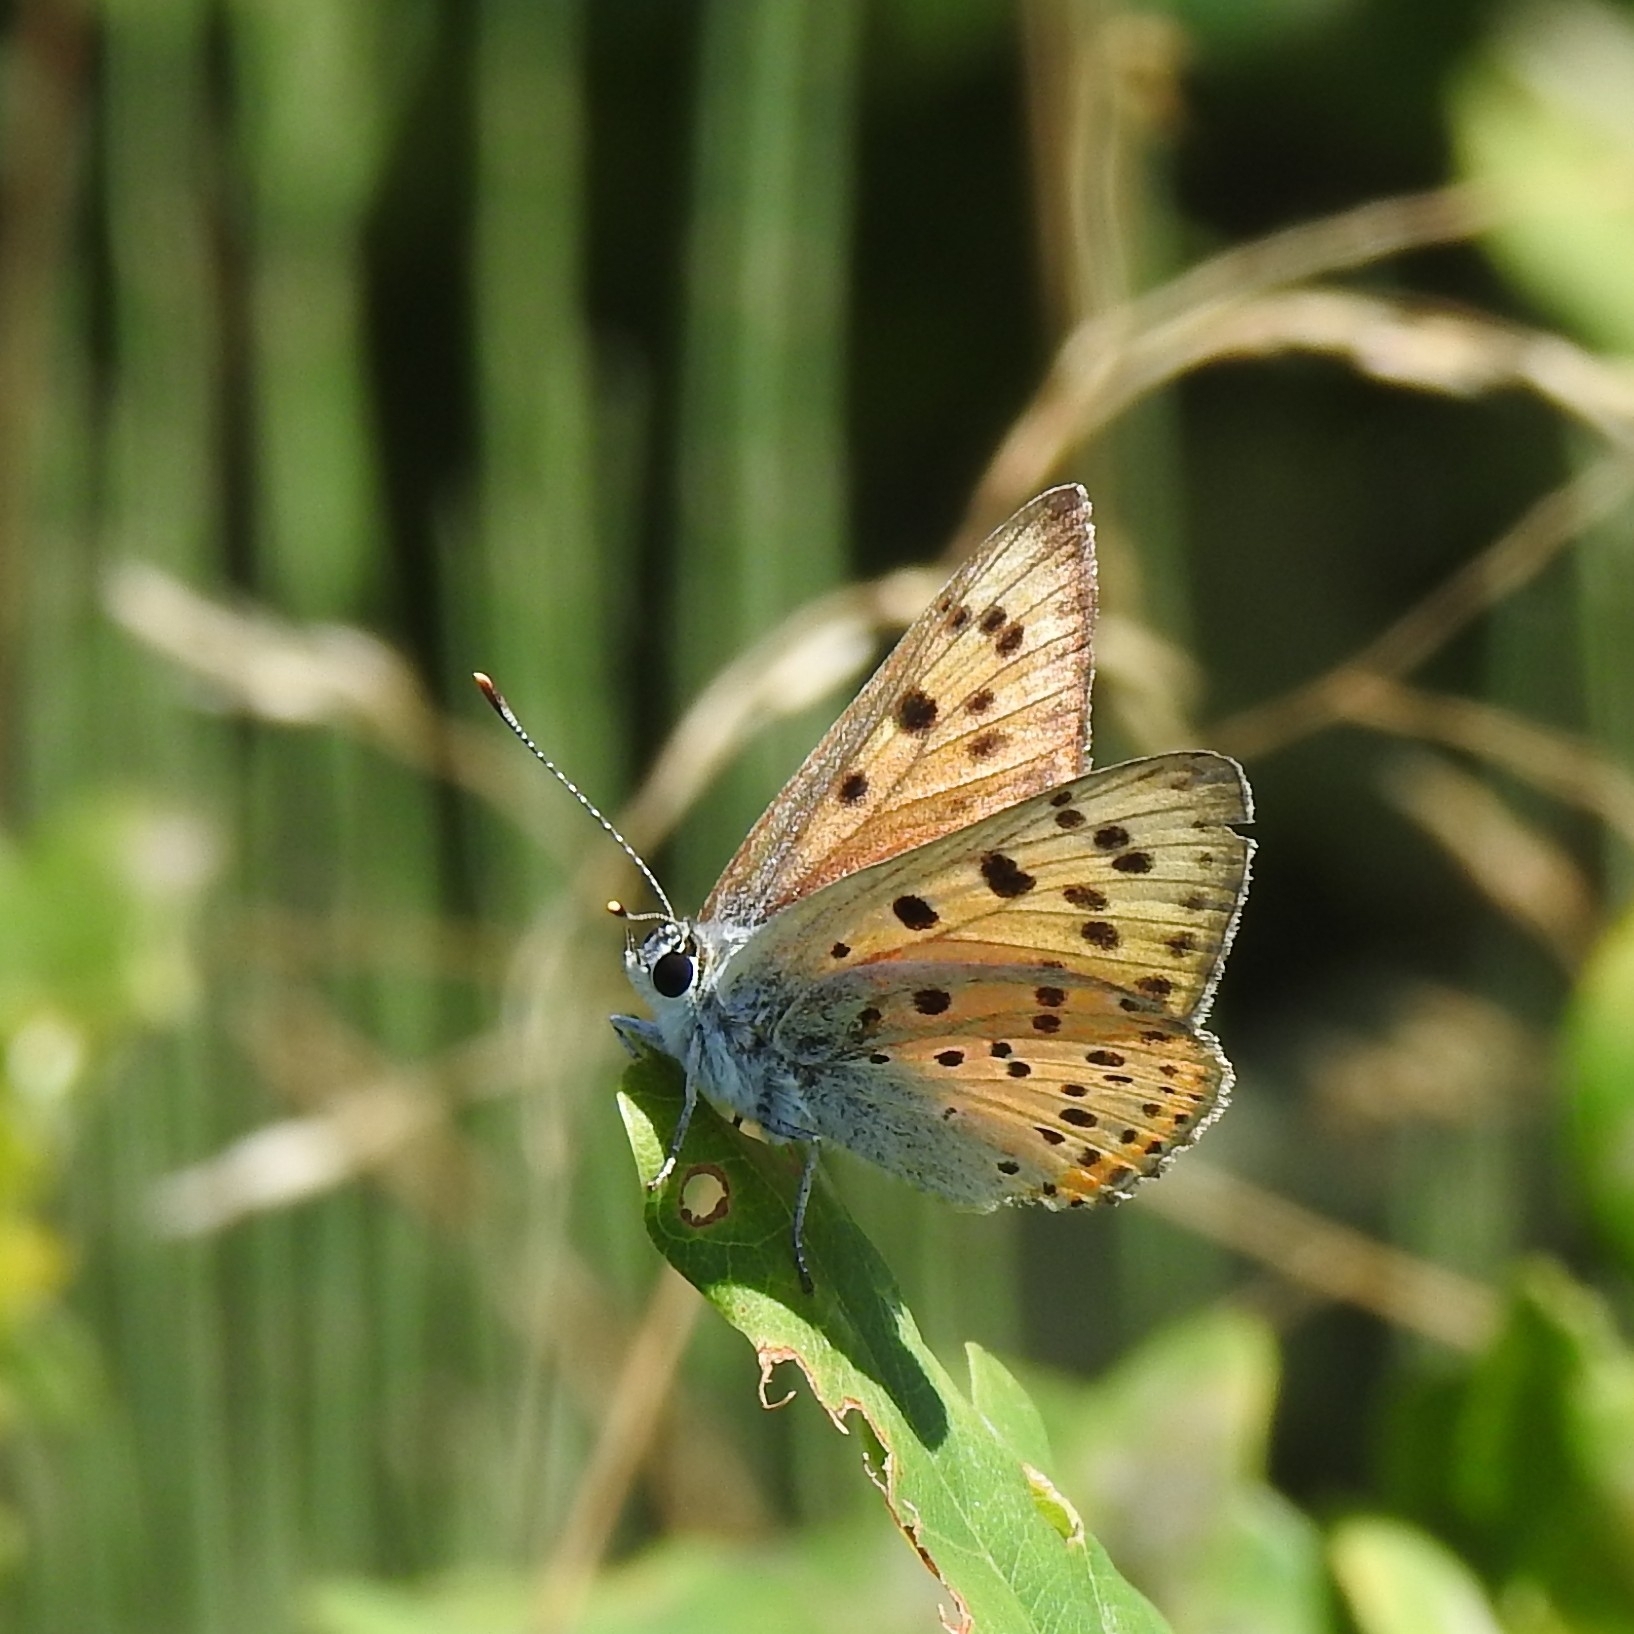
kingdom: Animalia
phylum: Arthropoda
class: Insecta
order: Lepidoptera
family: Lycaenidae
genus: Lycaena
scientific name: Lycaena alciphron
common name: Purple-shot copper
